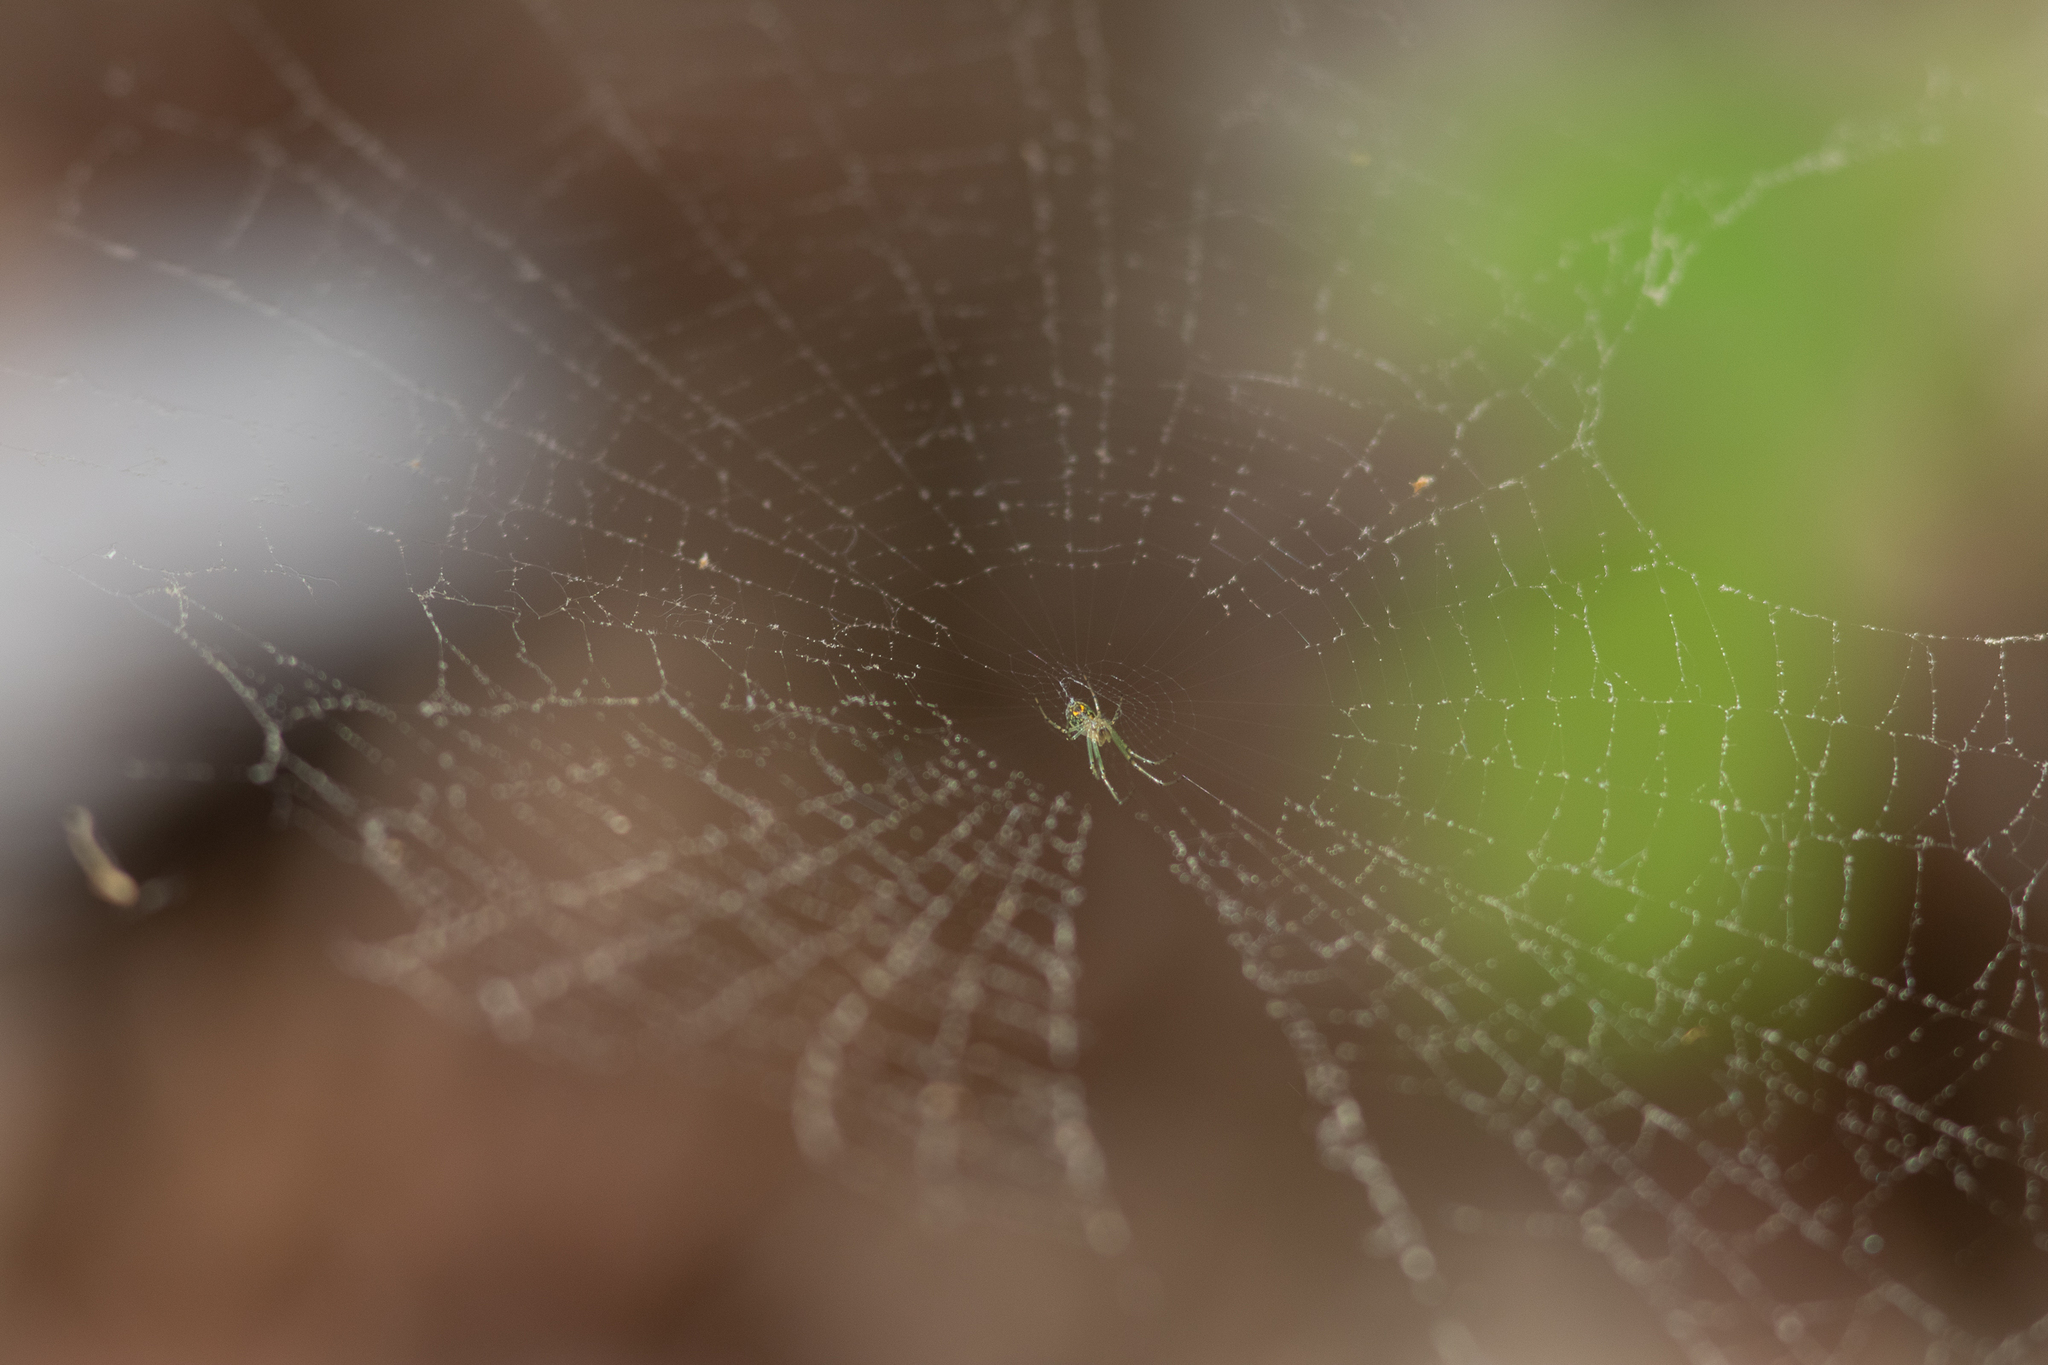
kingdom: Animalia
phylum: Arthropoda
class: Arachnida
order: Araneae
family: Tetragnathidae
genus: Leucauge
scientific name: Leucauge venusta
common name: Longjawed orb weavers
